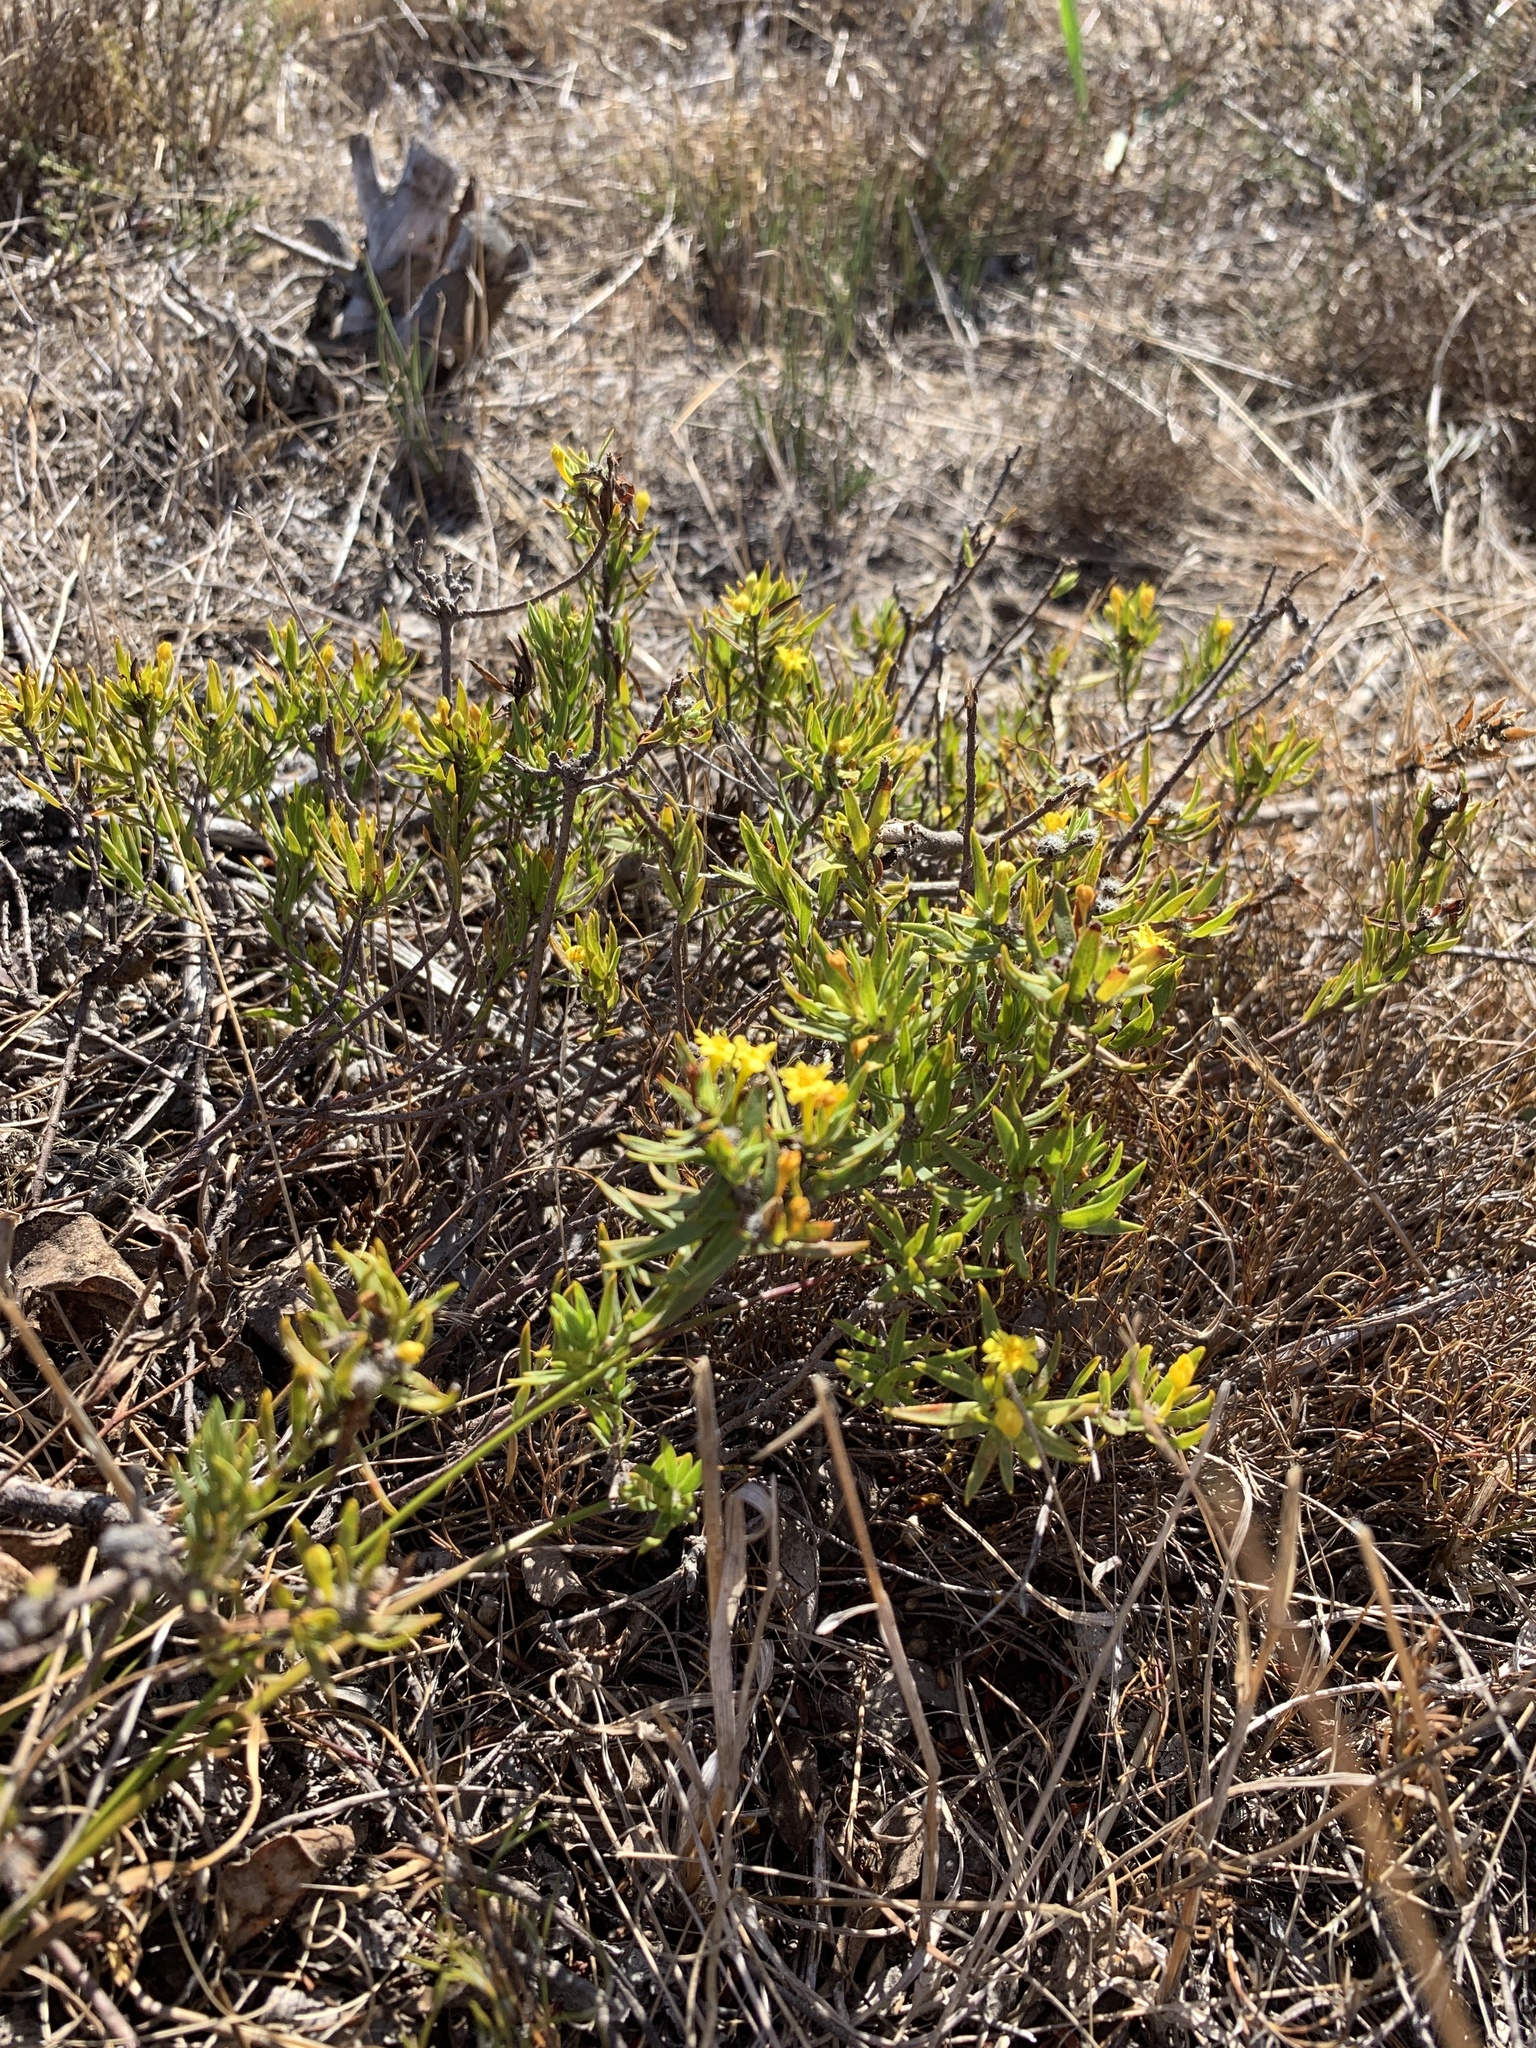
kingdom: Plantae
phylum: Tracheophyta
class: Magnoliopsida
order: Malvales
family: Thymelaeaceae
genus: Gnidia
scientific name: Gnidia juniperifolia
